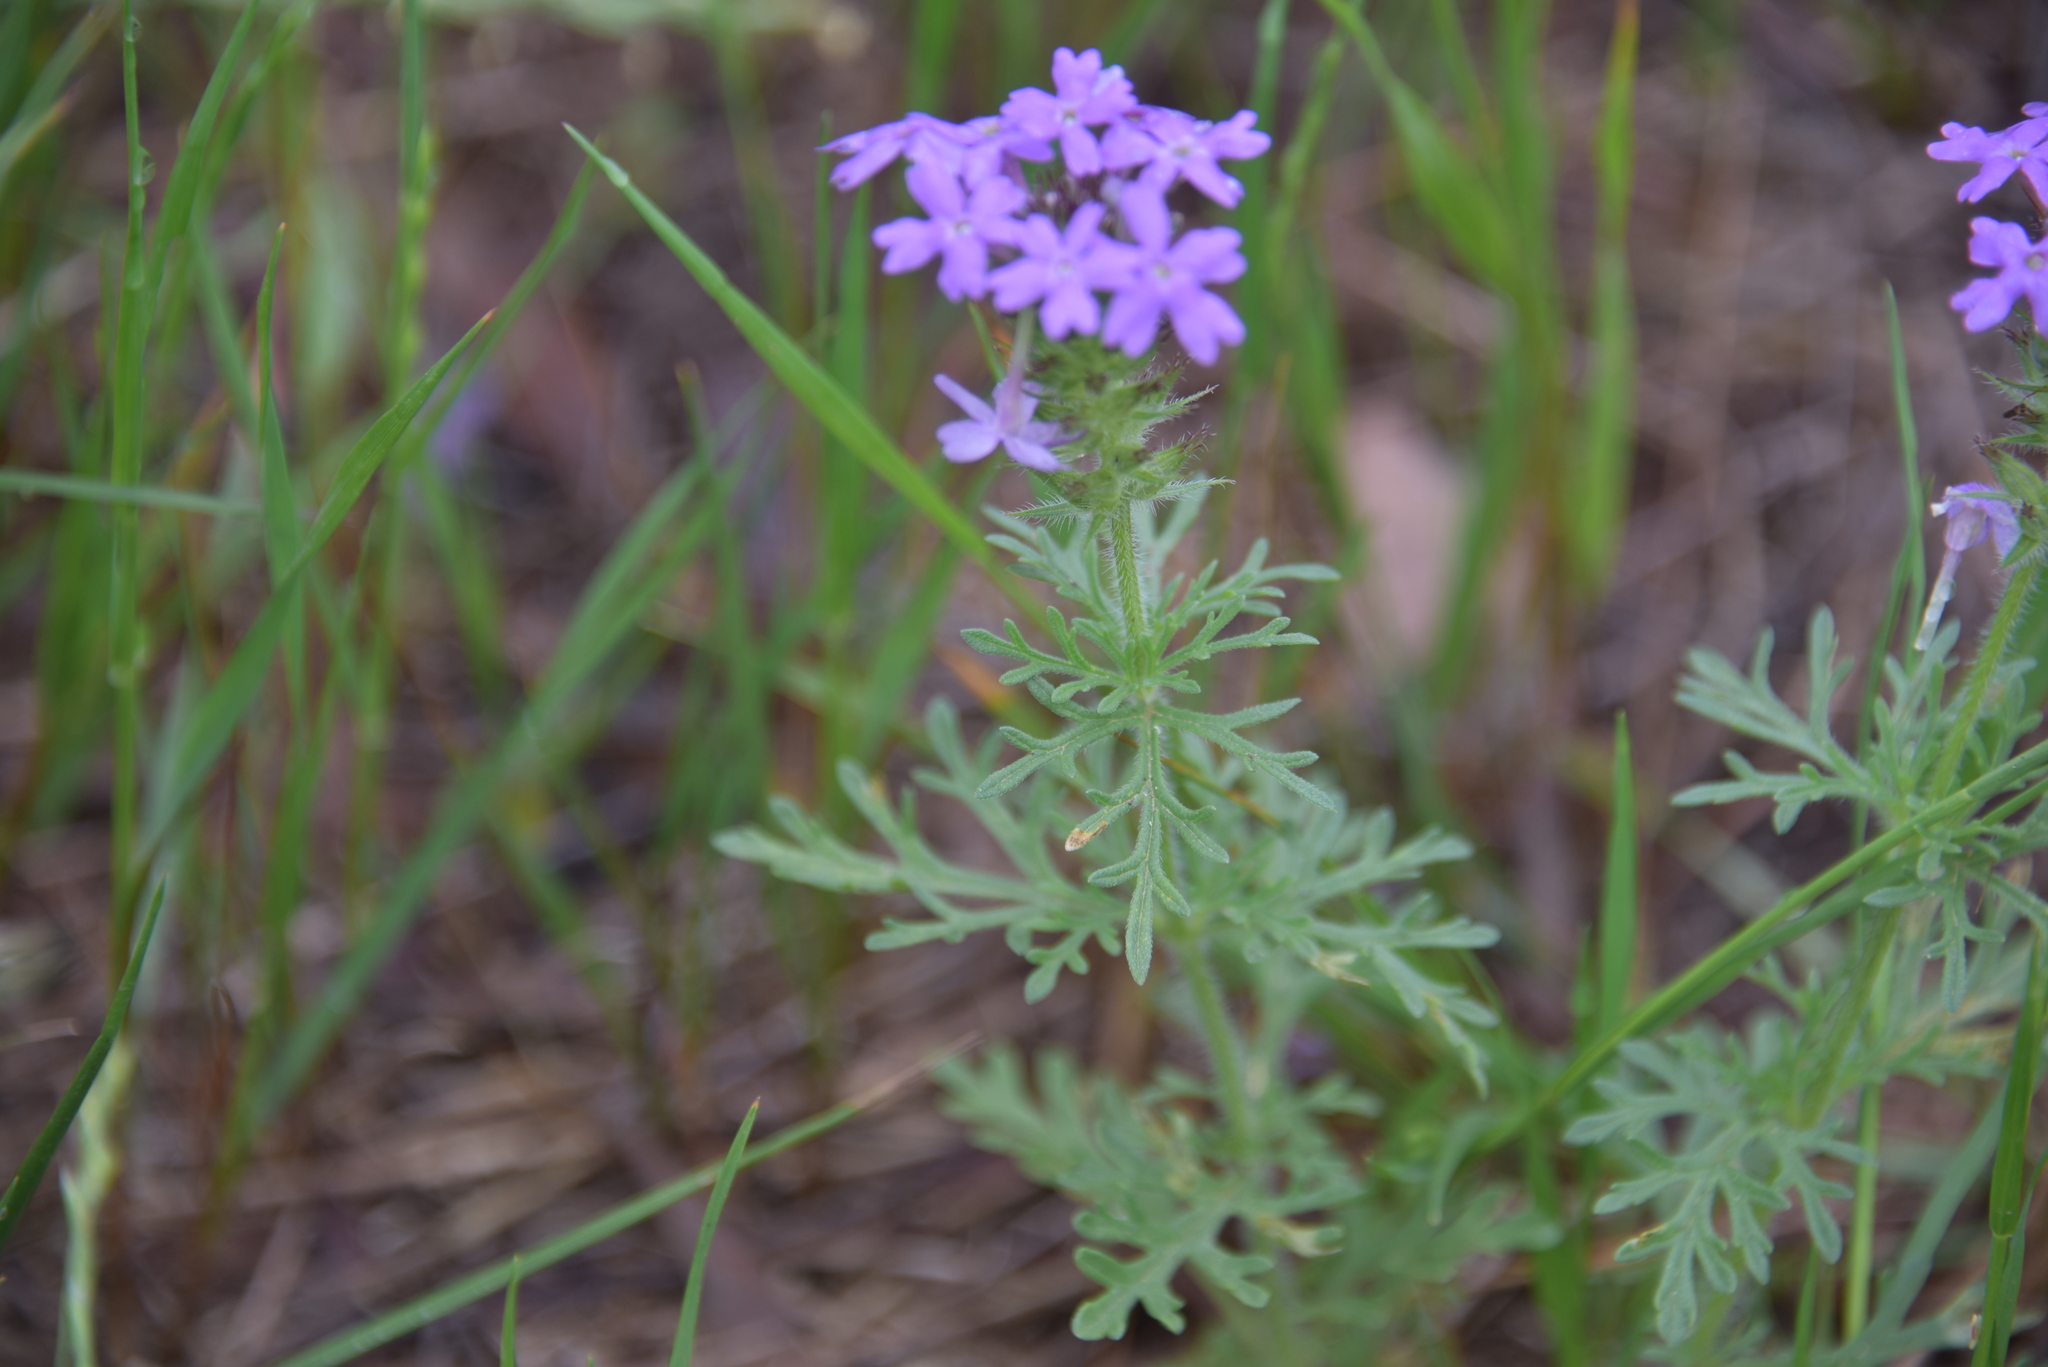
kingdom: Plantae
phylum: Tracheophyta
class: Magnoliopsida
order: Lamiales
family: Verbenaceae
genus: Verbena
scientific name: Verbena bipinnatifida
